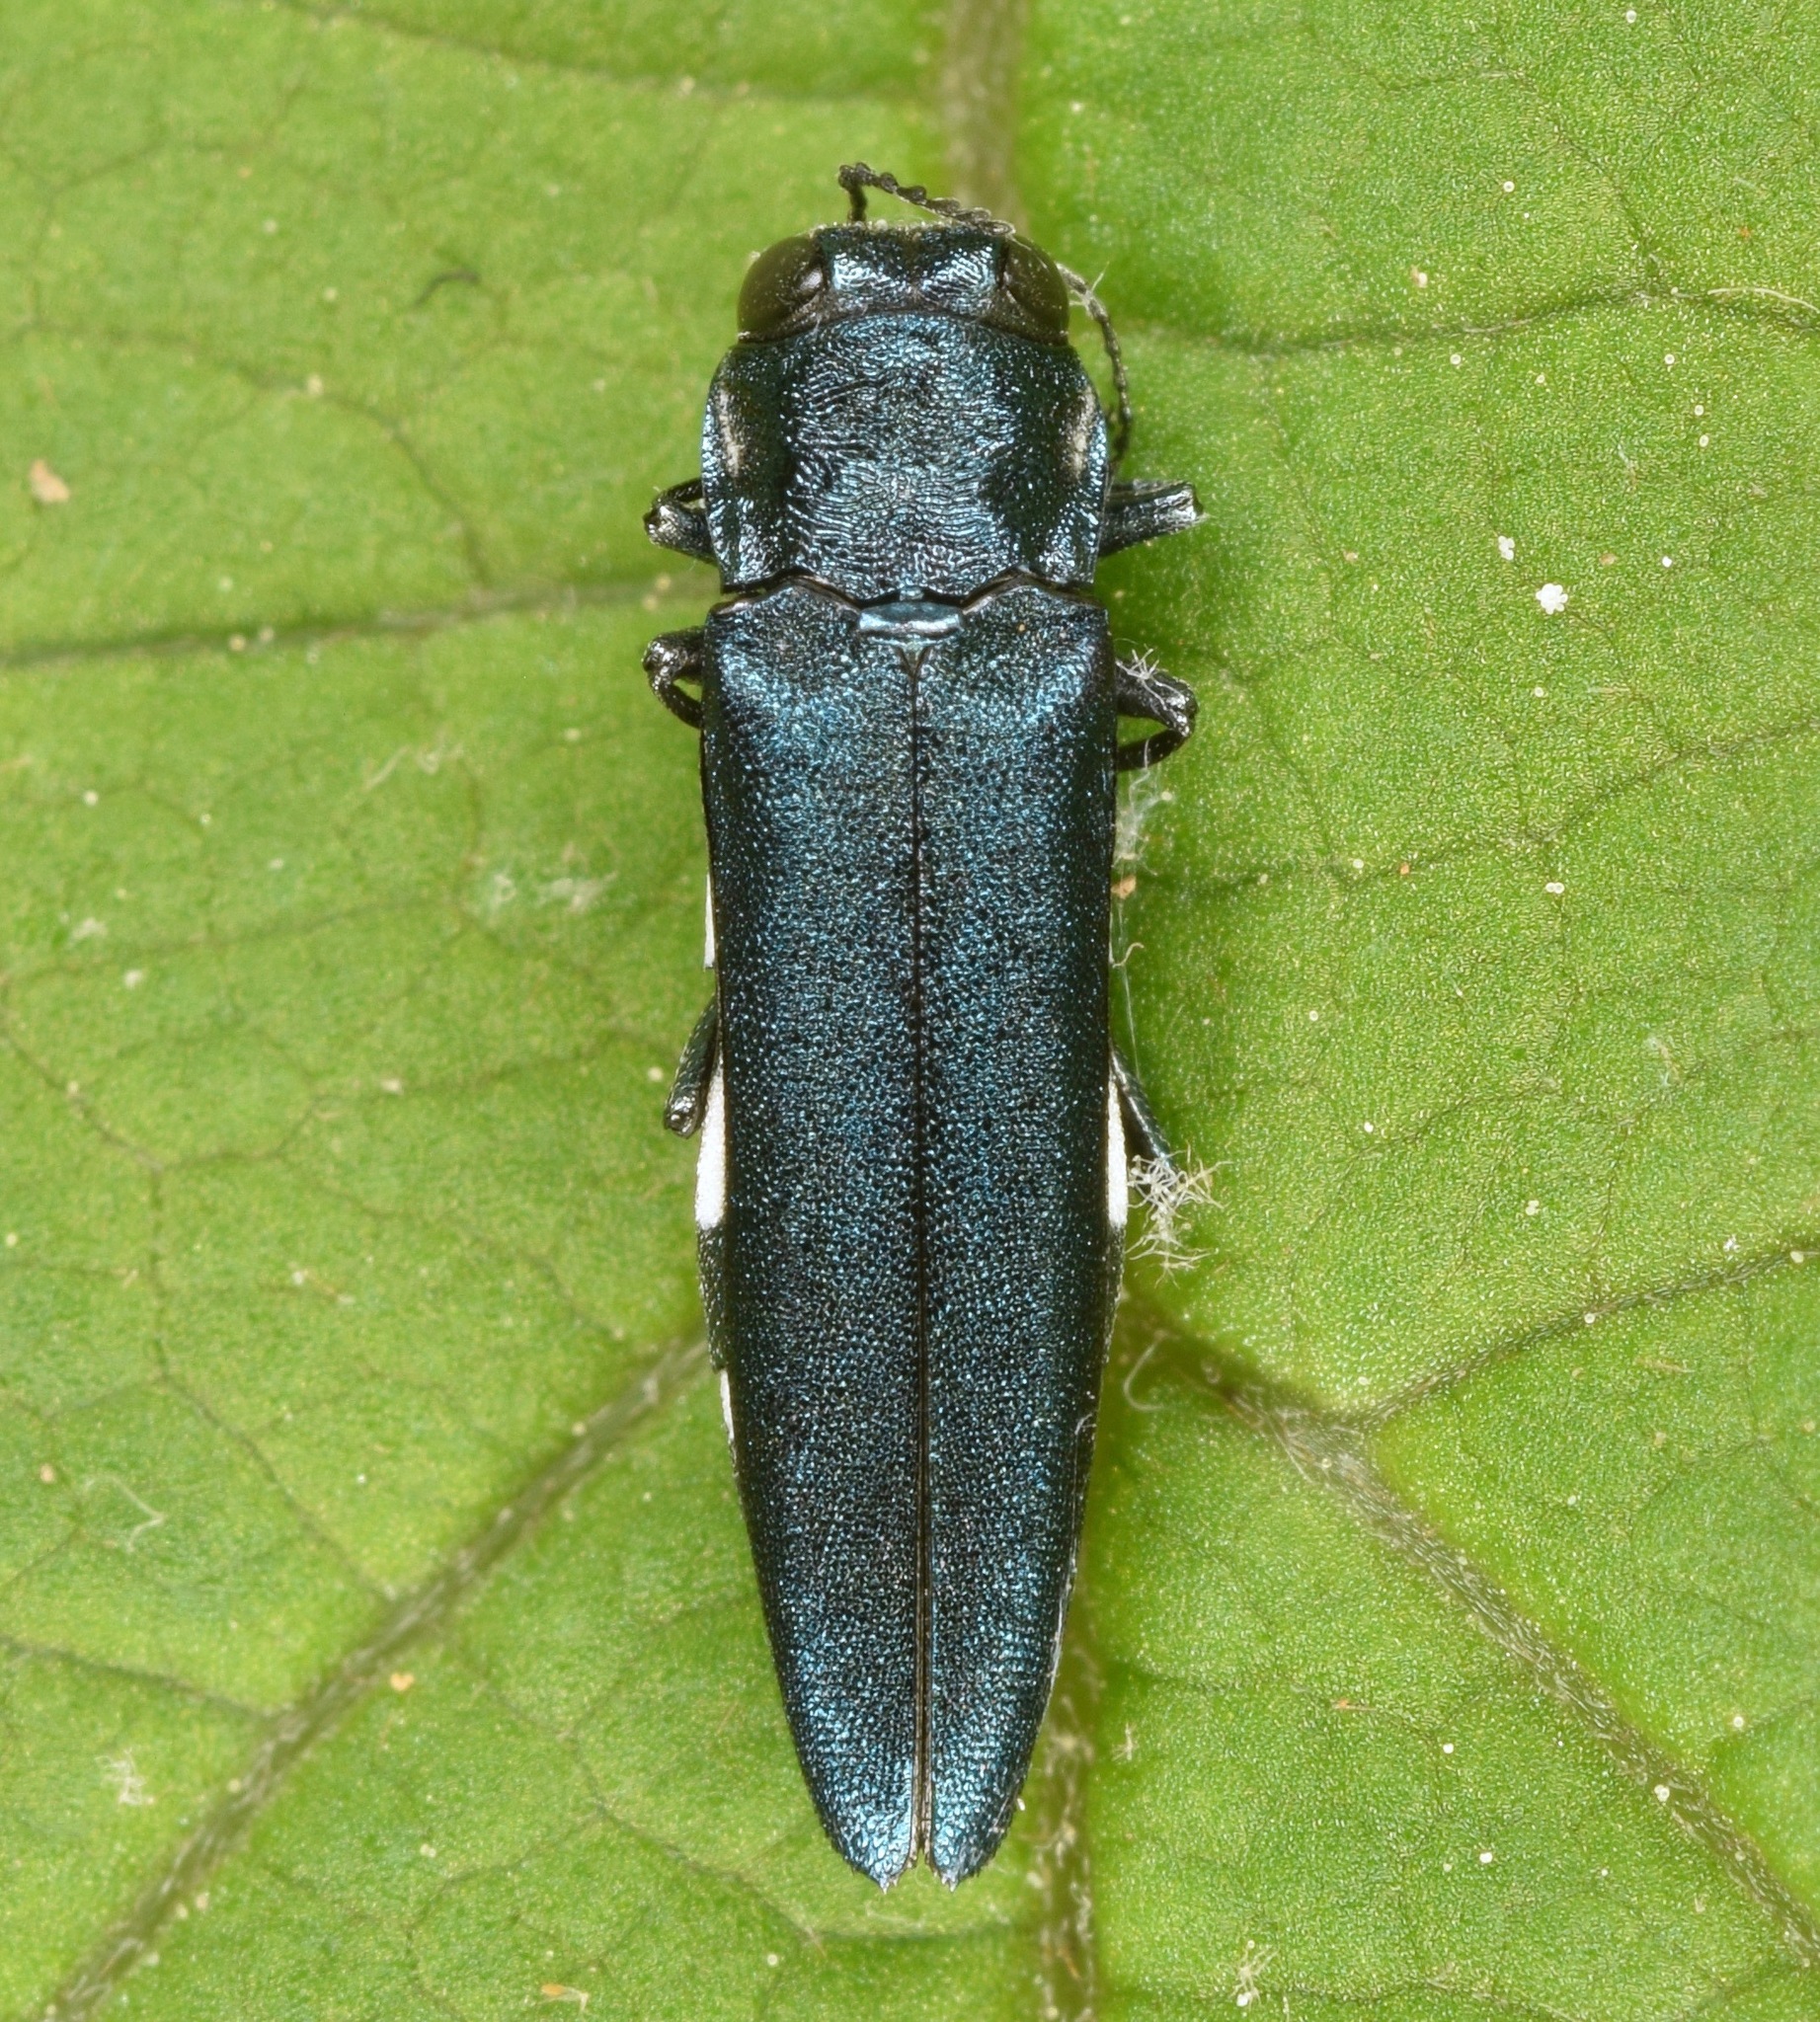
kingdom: Animalia
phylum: Arthropoda
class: Insecta
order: Coleoptera
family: Buprestidae
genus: Agrilus
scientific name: Agrilus acutipennis
